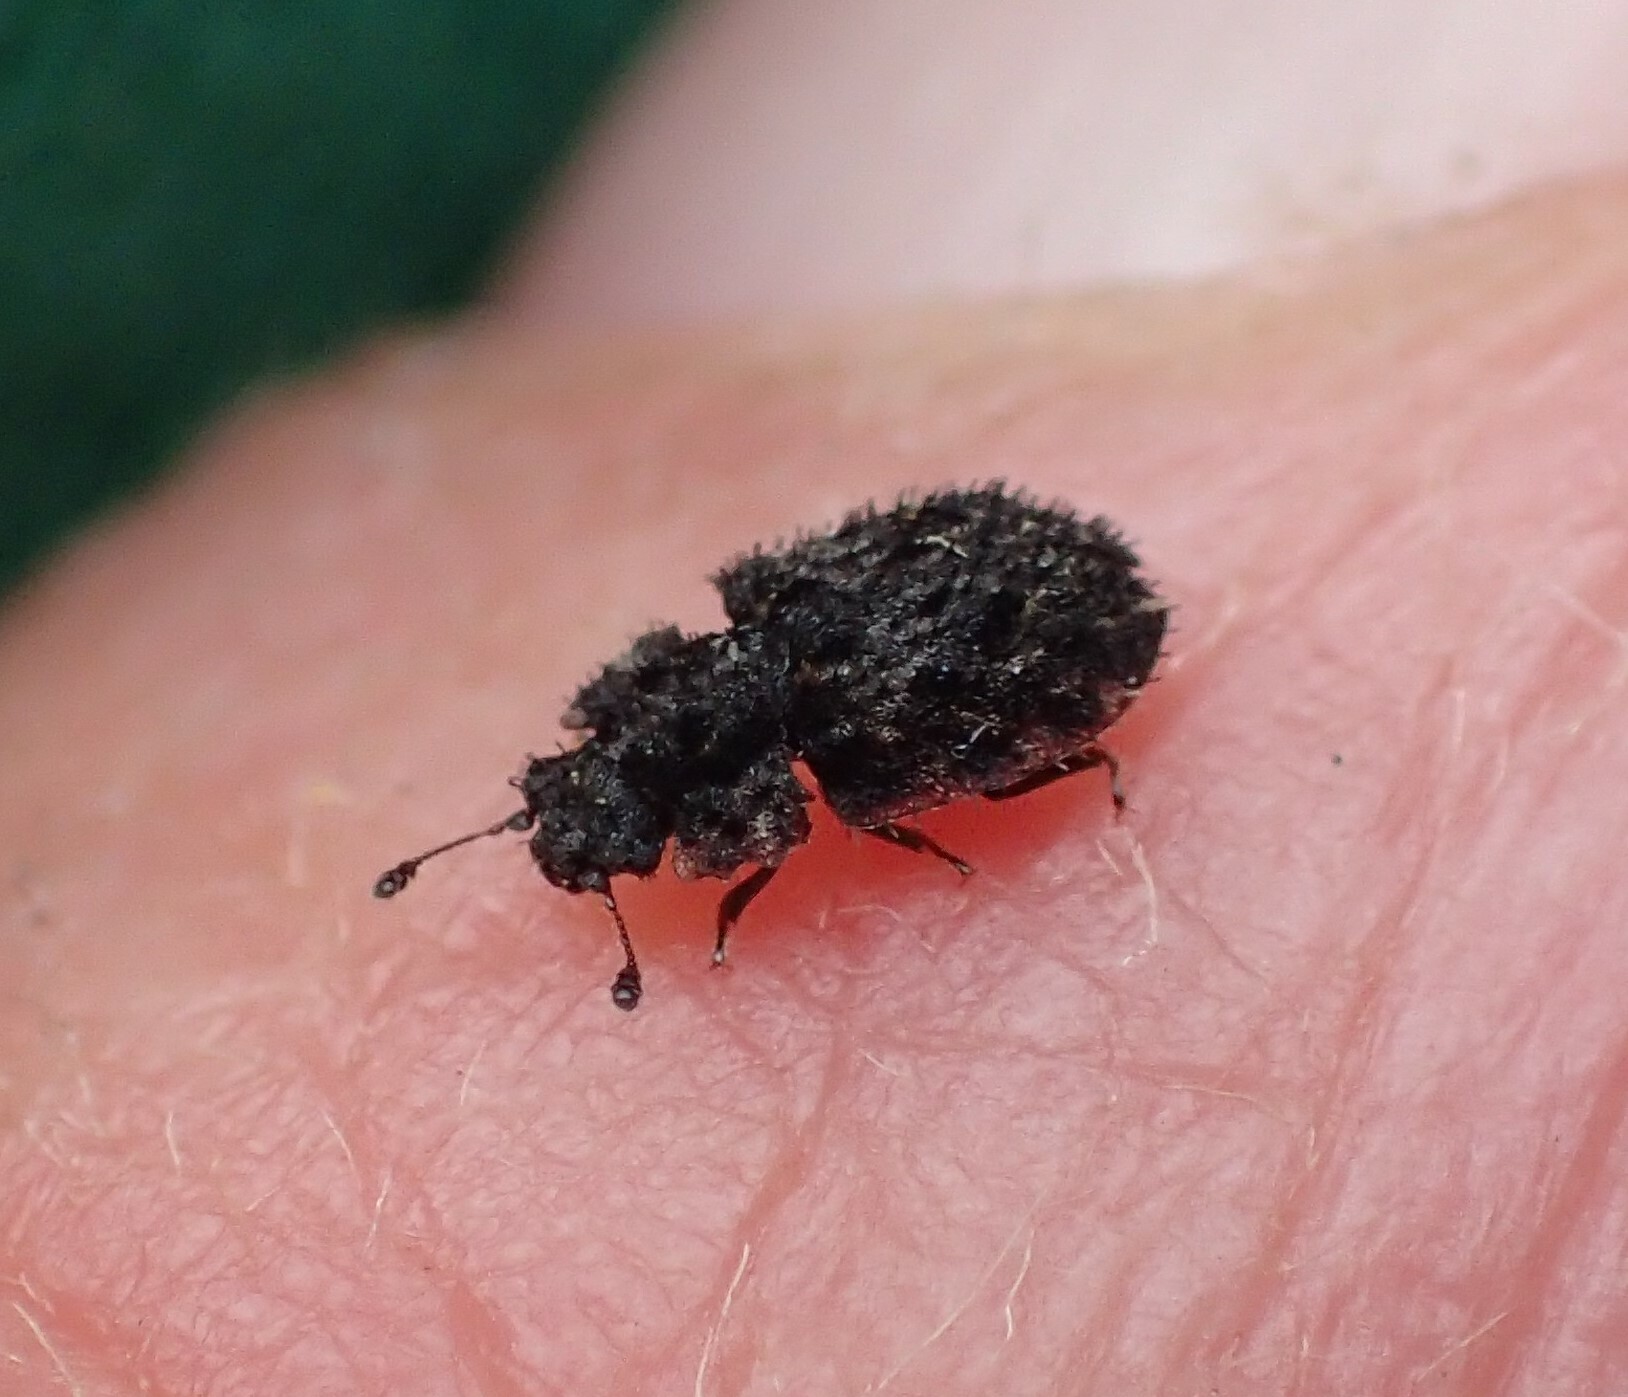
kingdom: Animalia
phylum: Arthropoda
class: Insecta
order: Coleoptera
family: Nitidulidae
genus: Hisparonia
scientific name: Hisparonia
